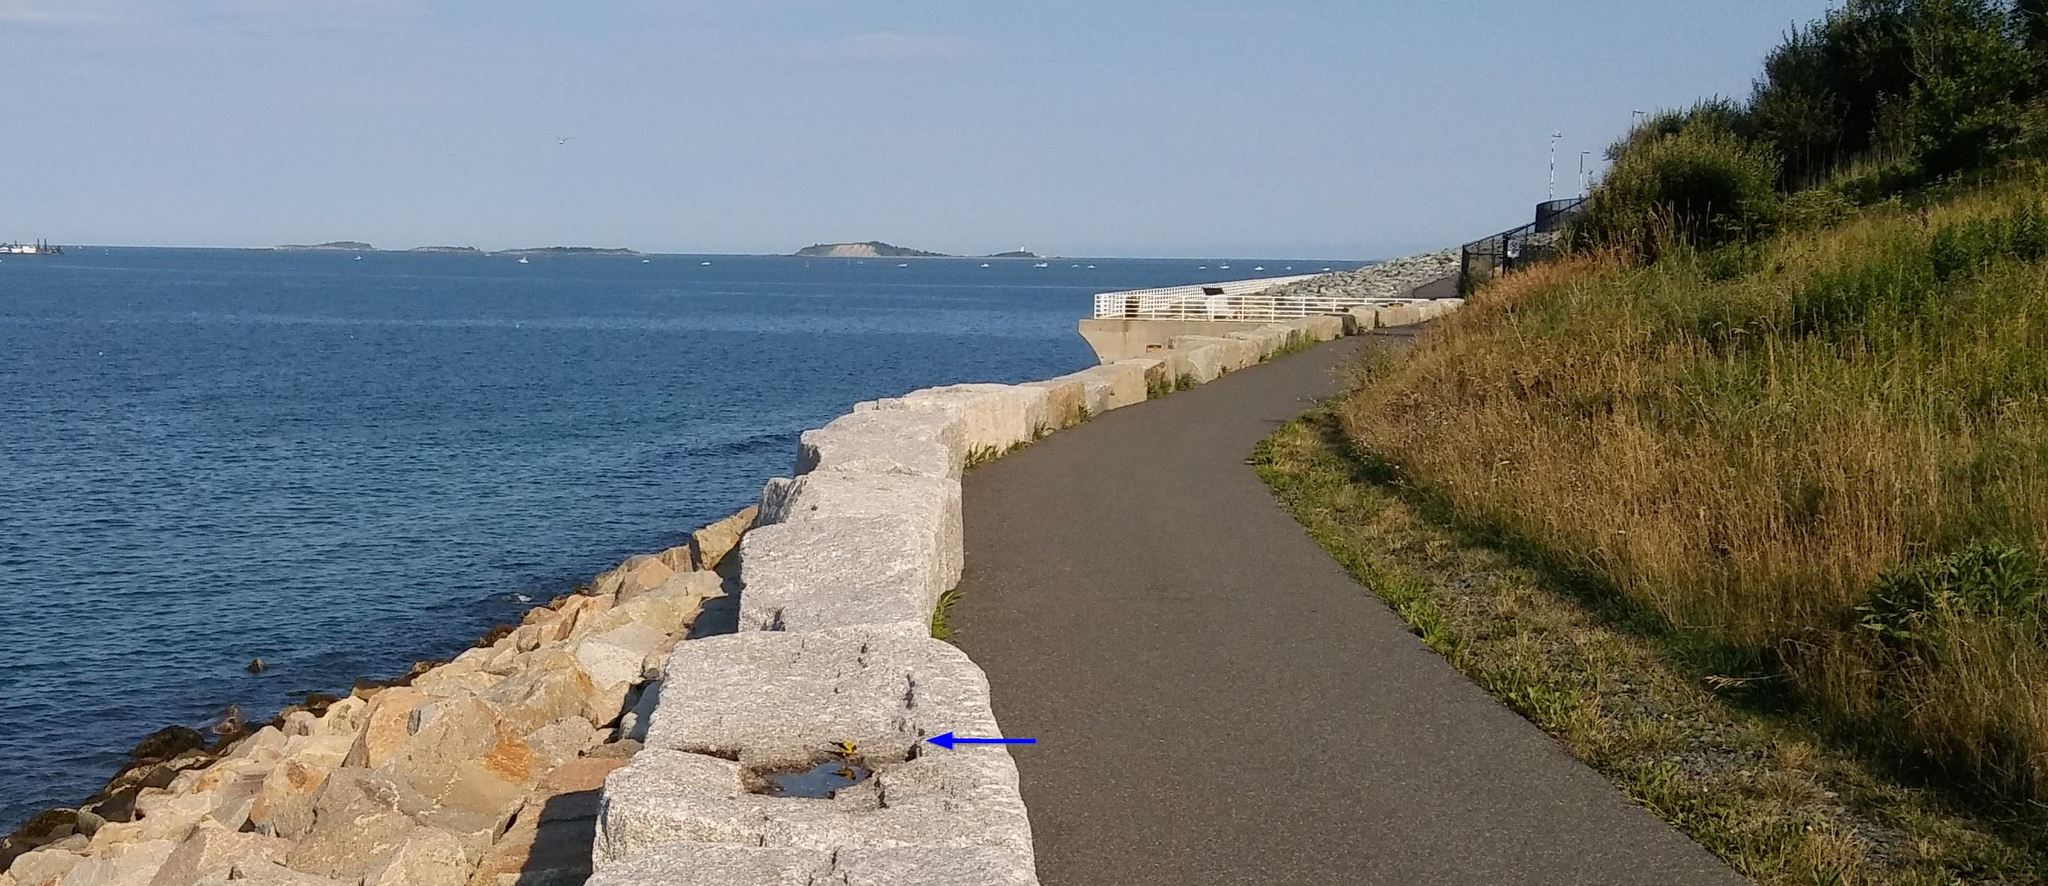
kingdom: Animalia
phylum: Chordata
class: Aves
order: Passeriformes
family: Fringillidae
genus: Spinus
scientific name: Spinus tristis
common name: American goldfinch
